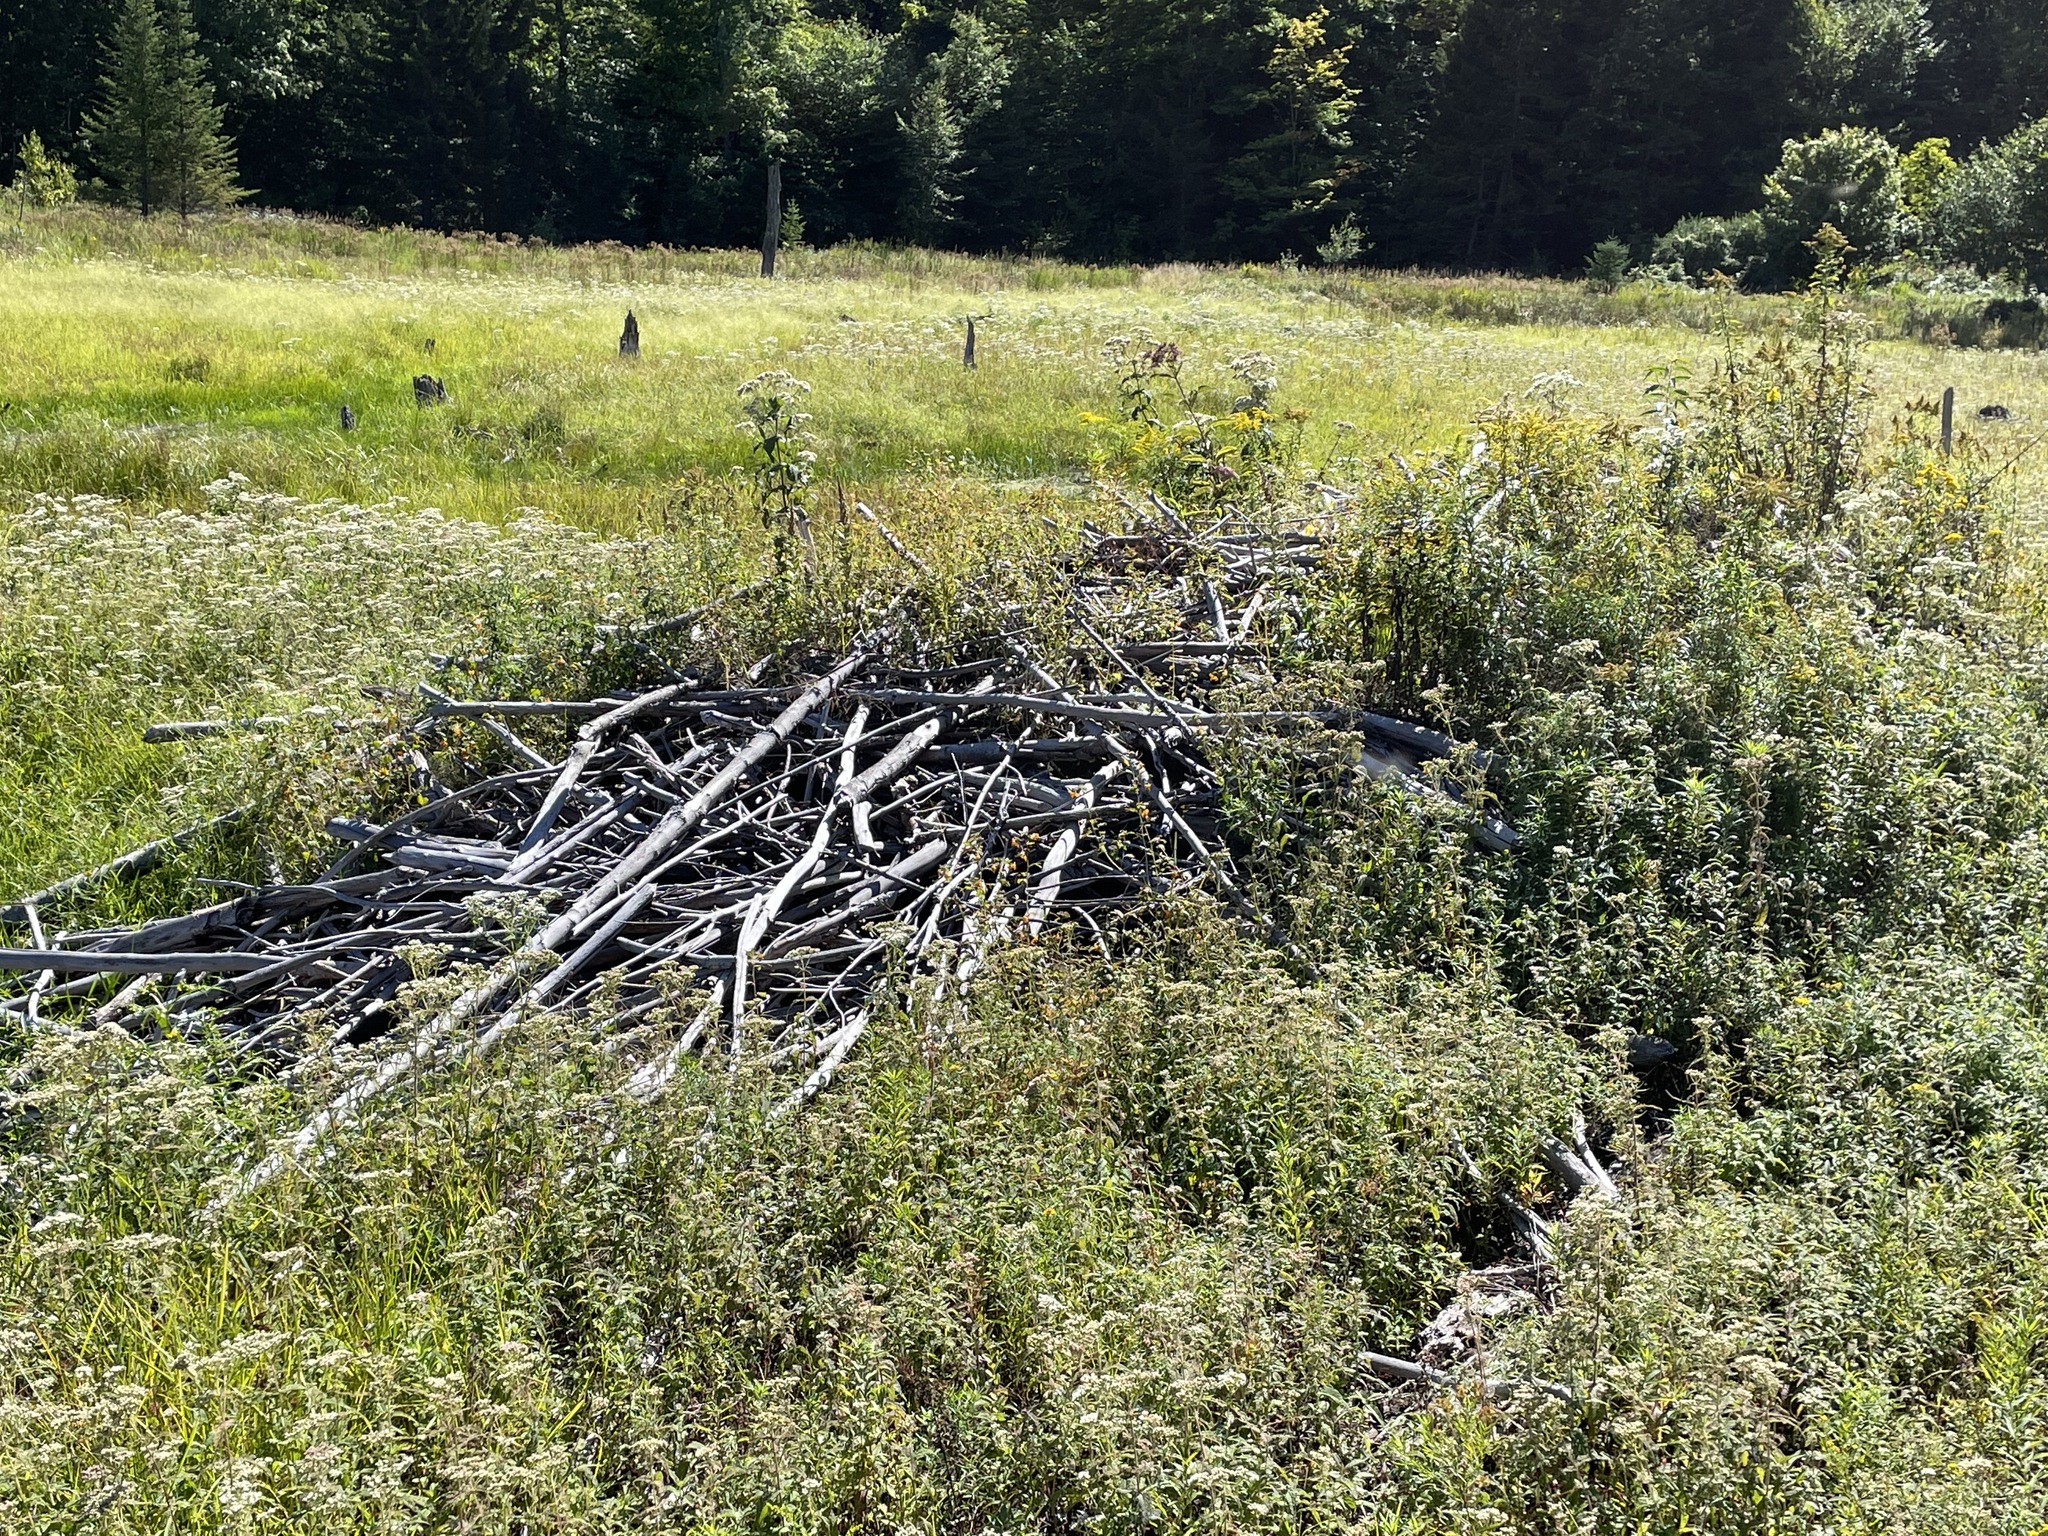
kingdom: Animalia
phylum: Chordata
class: Mammalia
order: Rodentia
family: Castoridae
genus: Castor
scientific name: Castor canadensis
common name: American beaver
